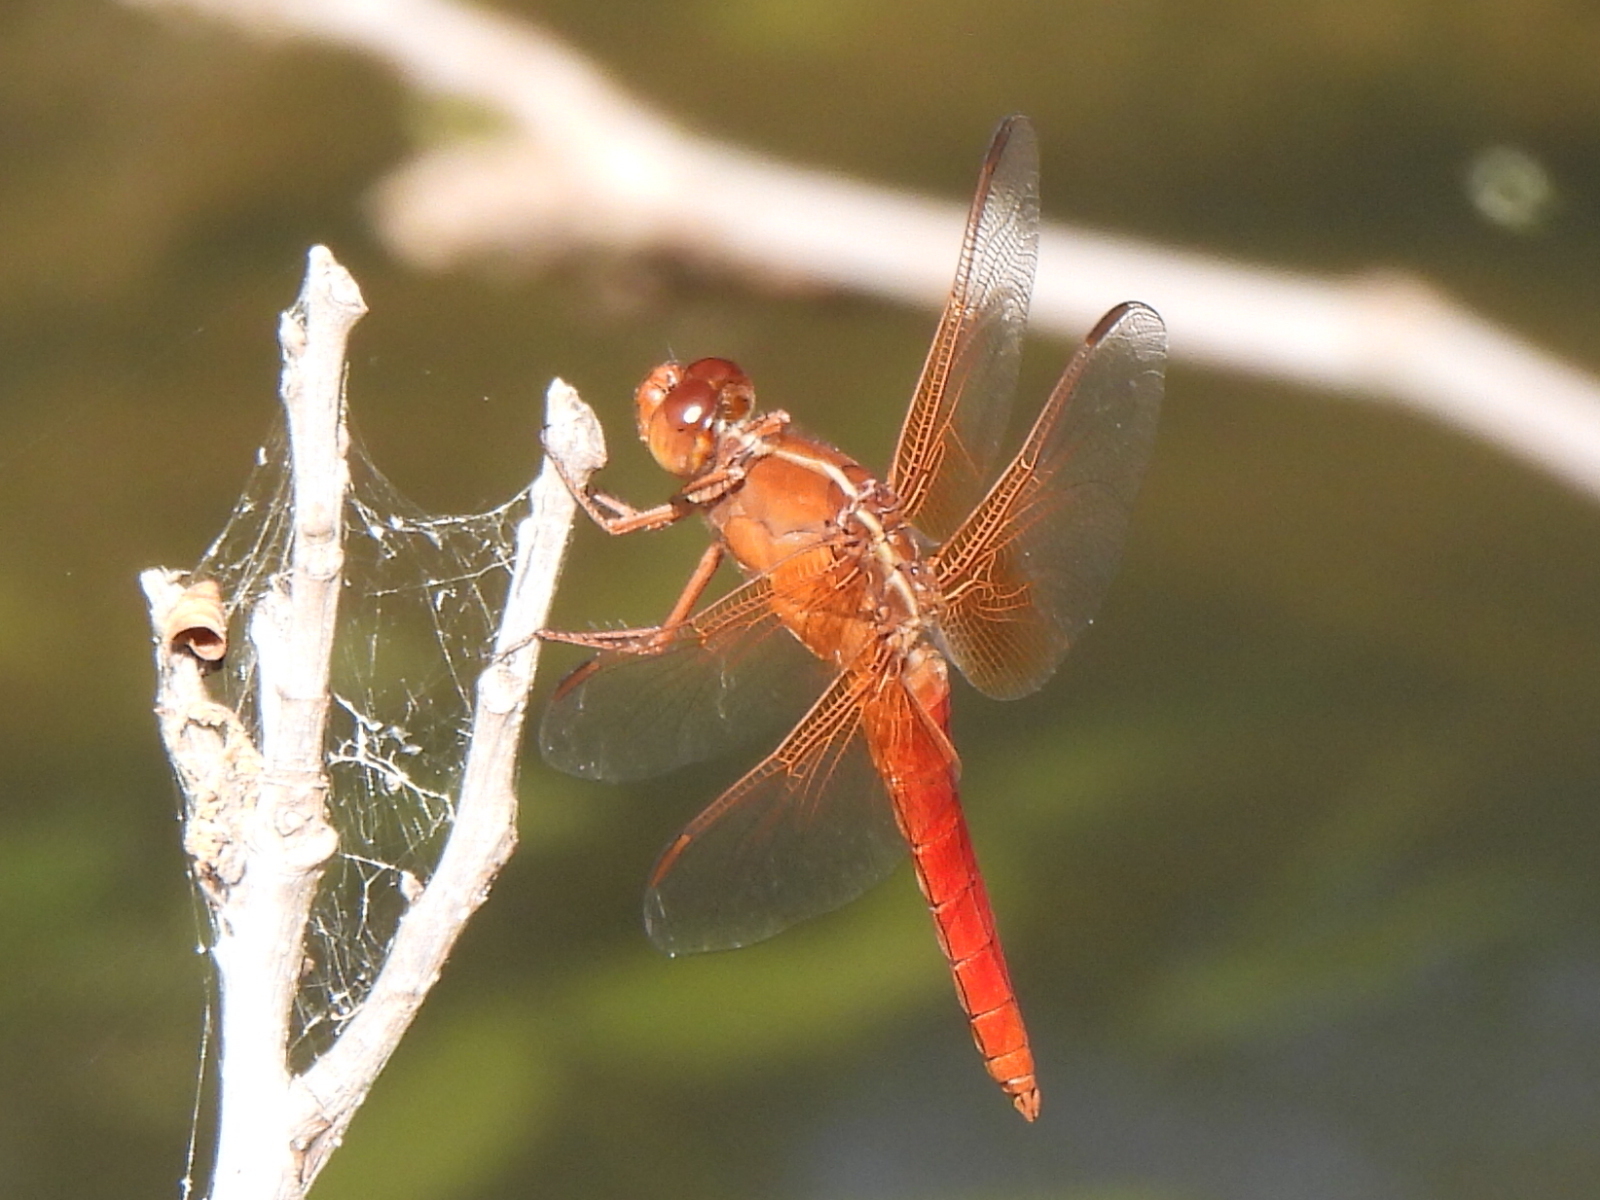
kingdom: Animalia
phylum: Arthropoda
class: Insecta
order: Odonata
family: Libellulidae
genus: Libellula
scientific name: Libellula croceipennis
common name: Neon skimmer
